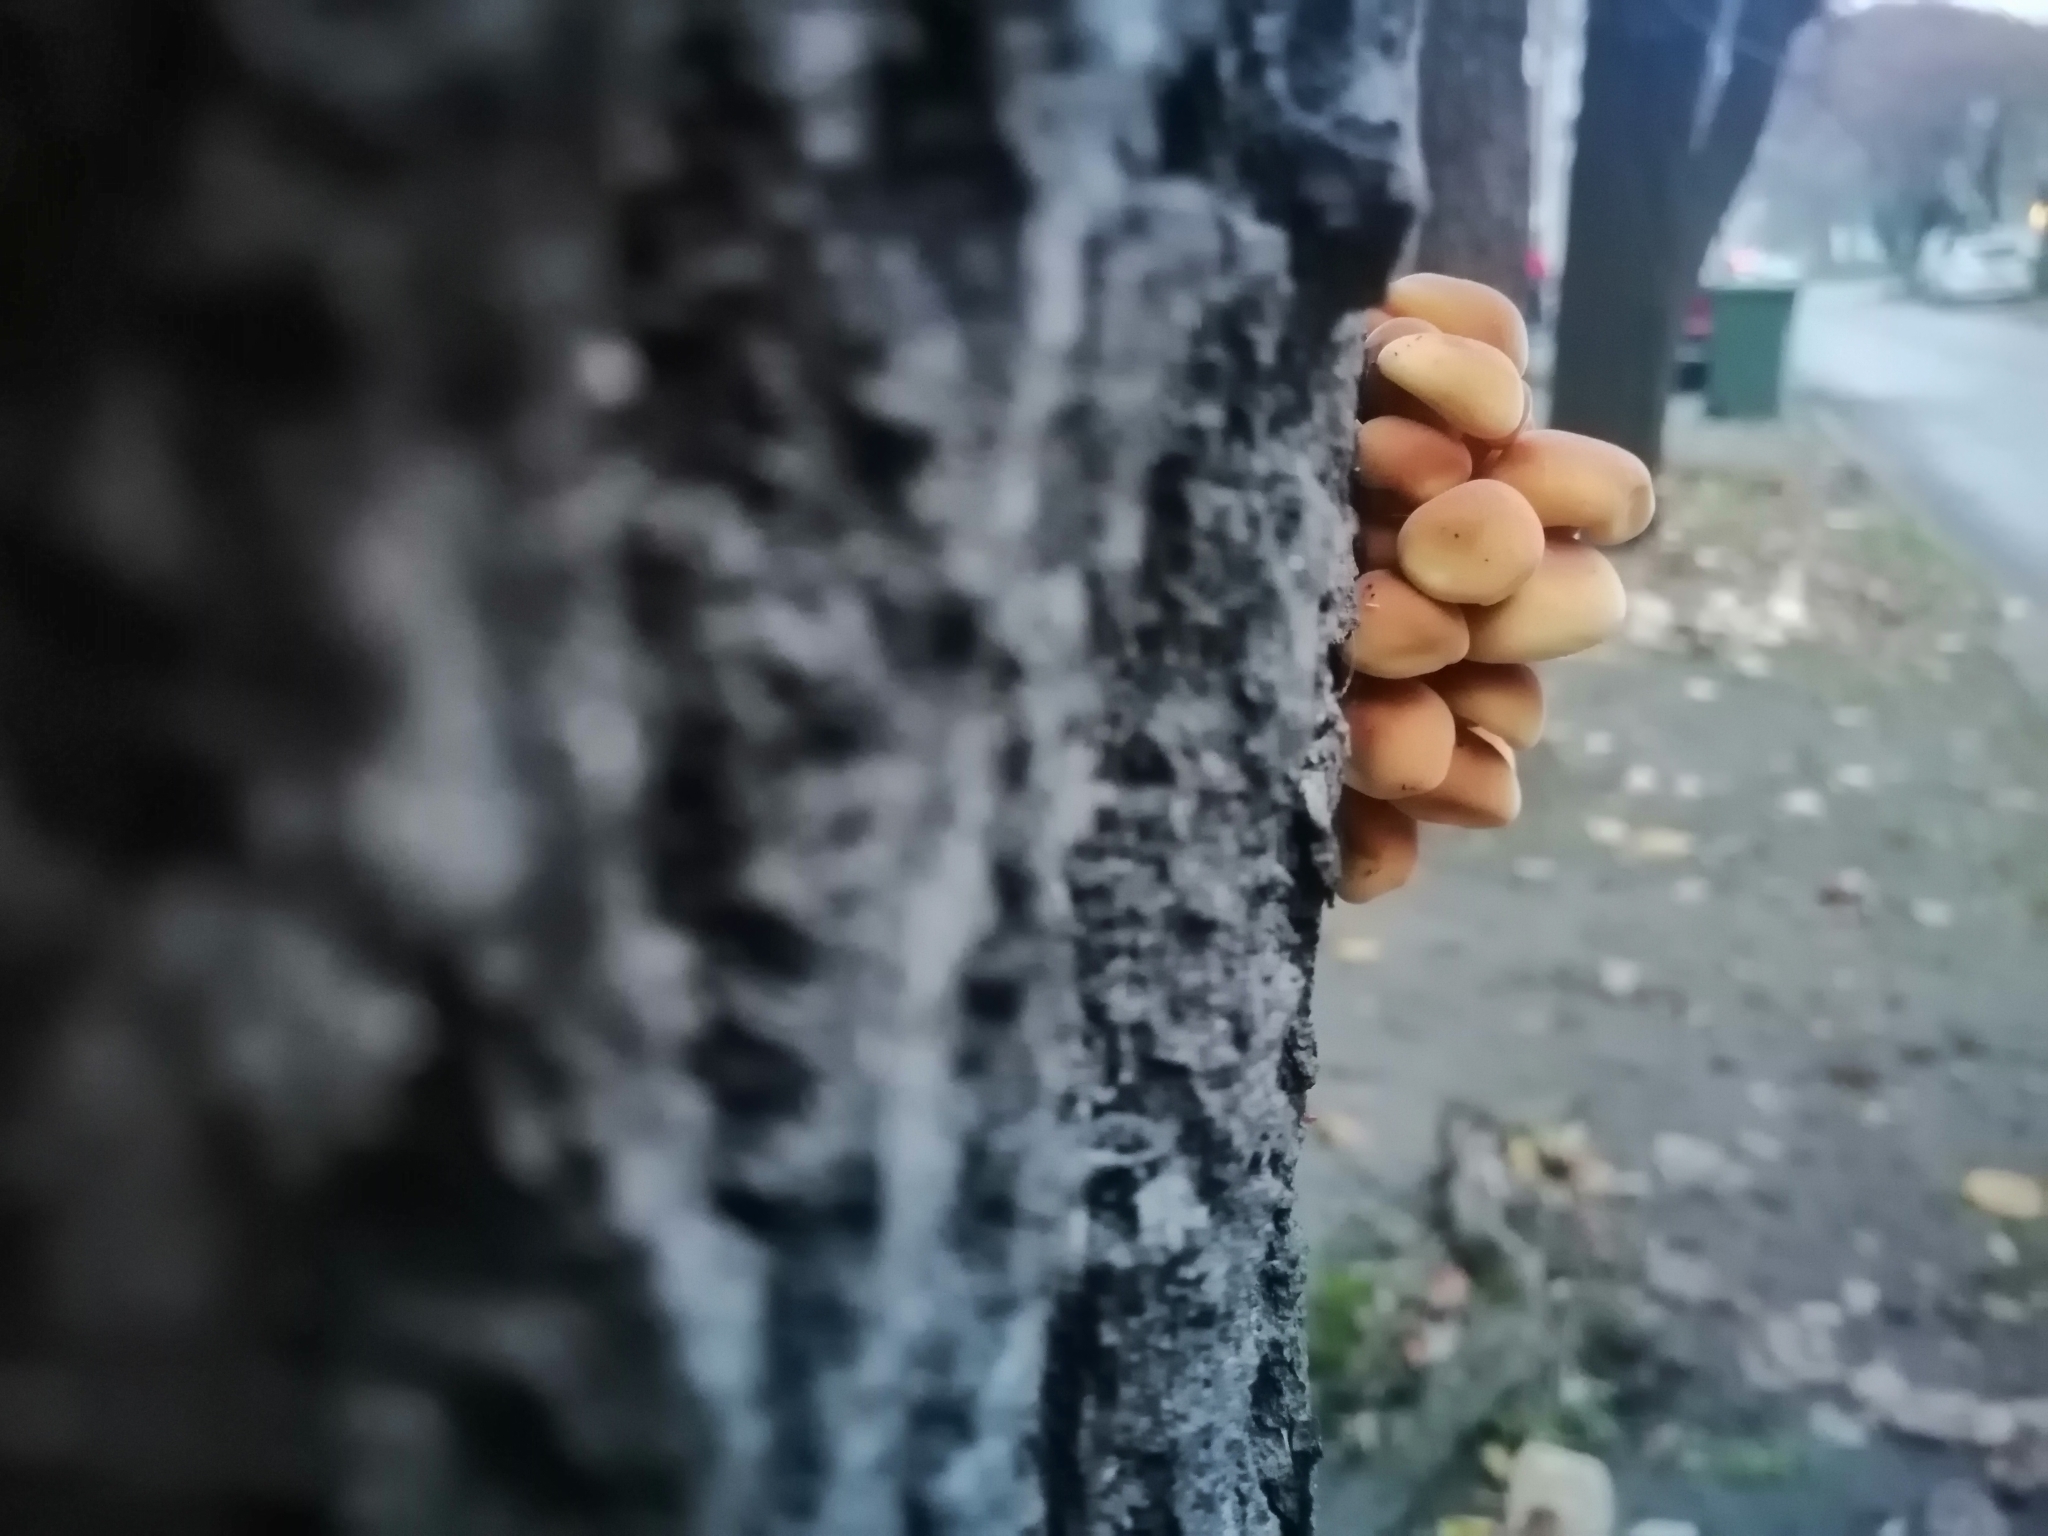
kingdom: Fungi
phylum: Basidiomycota
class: Agaricomycetes
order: Agaricales
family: Physalacriaceae
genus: Flammulina
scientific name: Flammulina
